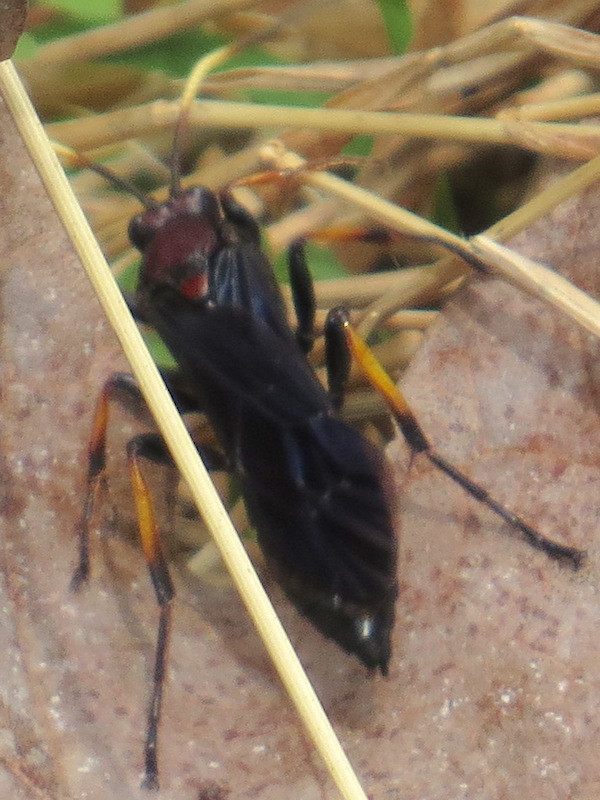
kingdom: Animalia
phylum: Arthropoda
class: Insecta
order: Hymenoptera
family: Ichneumonidae
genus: Ichneumon
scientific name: Ichneumon centrator
